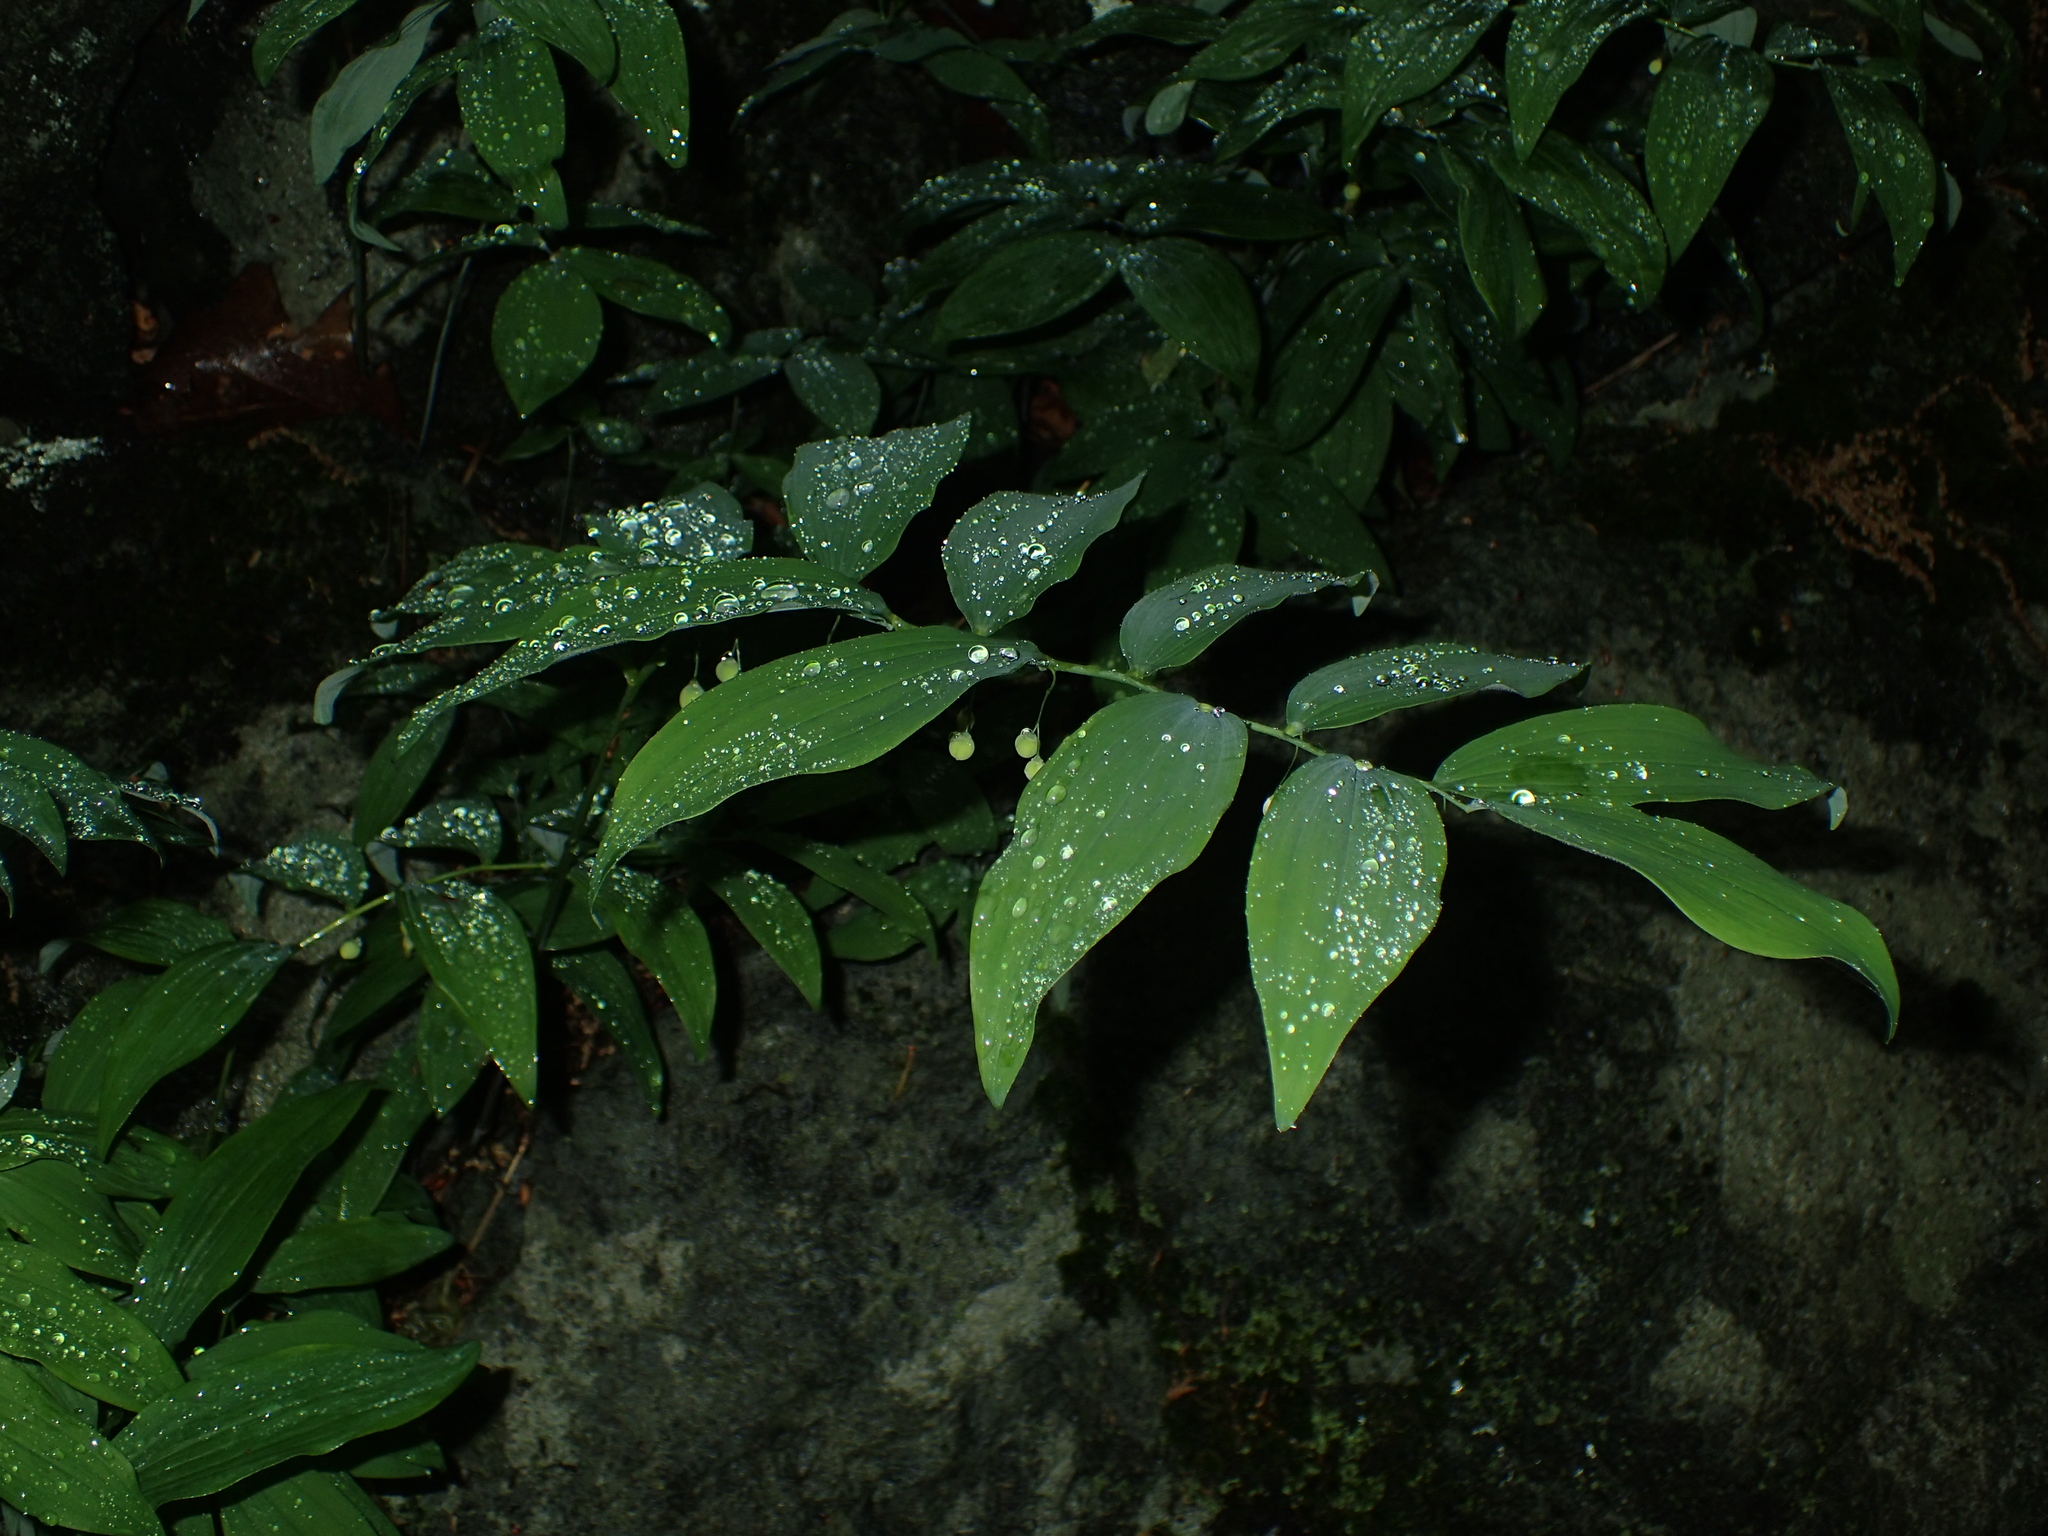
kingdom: Plantae
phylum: Tracheophyta
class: Liliopsida
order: Asparagales
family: Asparagaceae
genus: Polygonatum
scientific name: Polygonatum pubescens
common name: Downy solomon's seal
